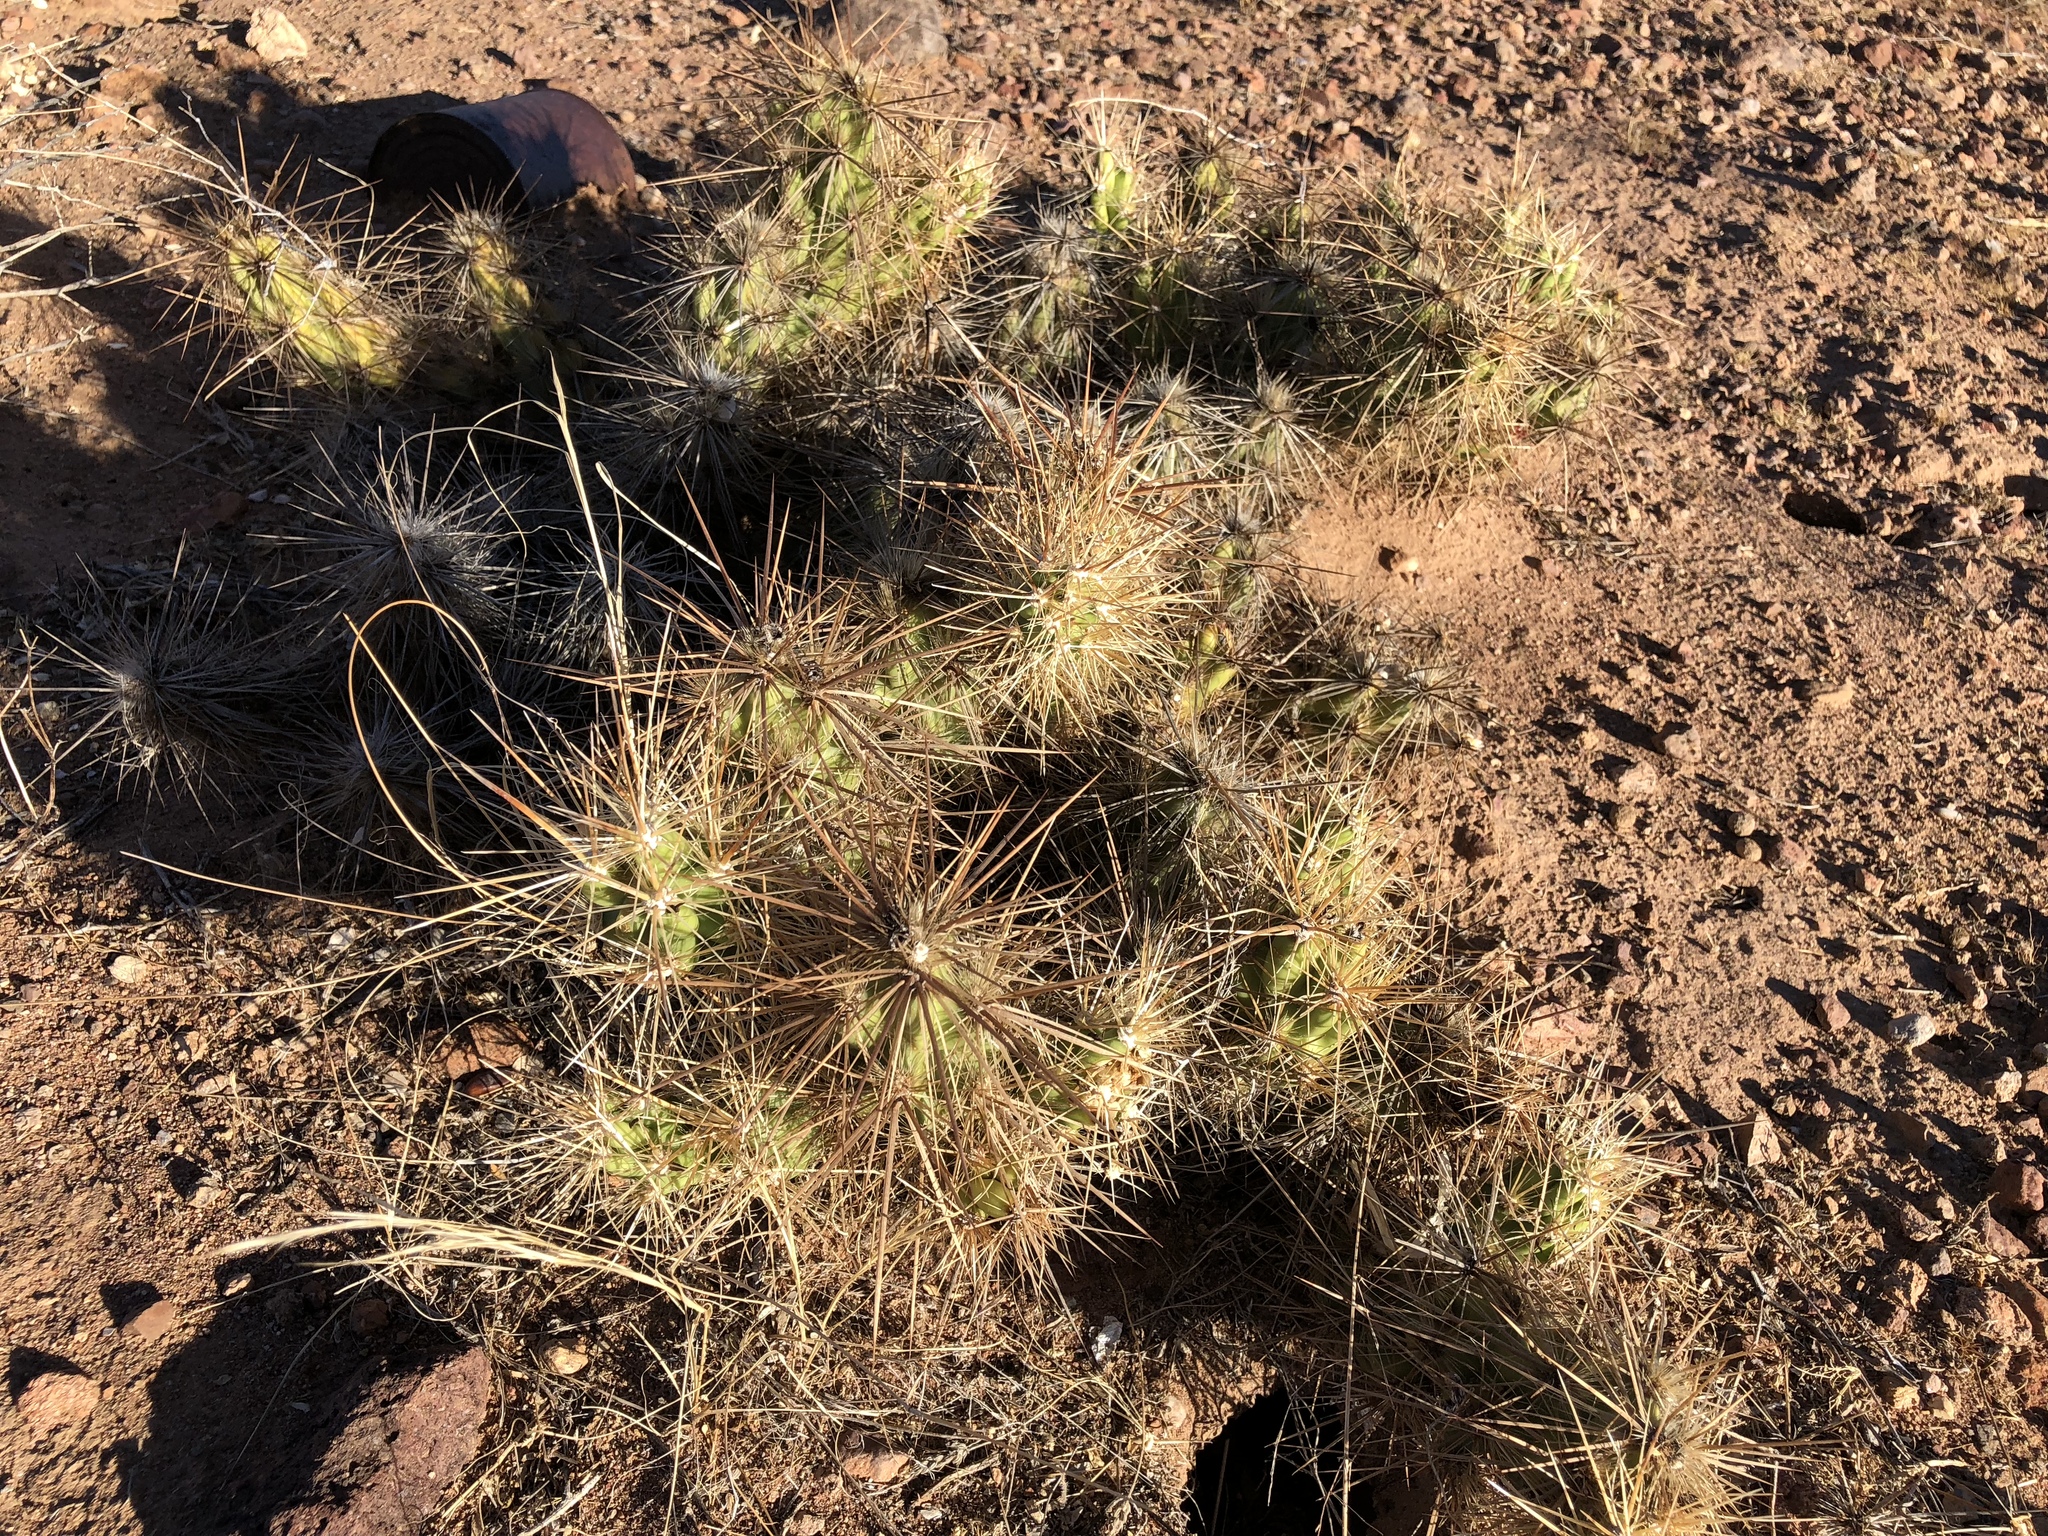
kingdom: Plantae
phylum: Tracheophyta
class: Magnoliopsida
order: Caryophyllales
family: Cactaceae
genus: Grusonia
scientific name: Grusonia emoryi
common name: Stanly's club cholla
